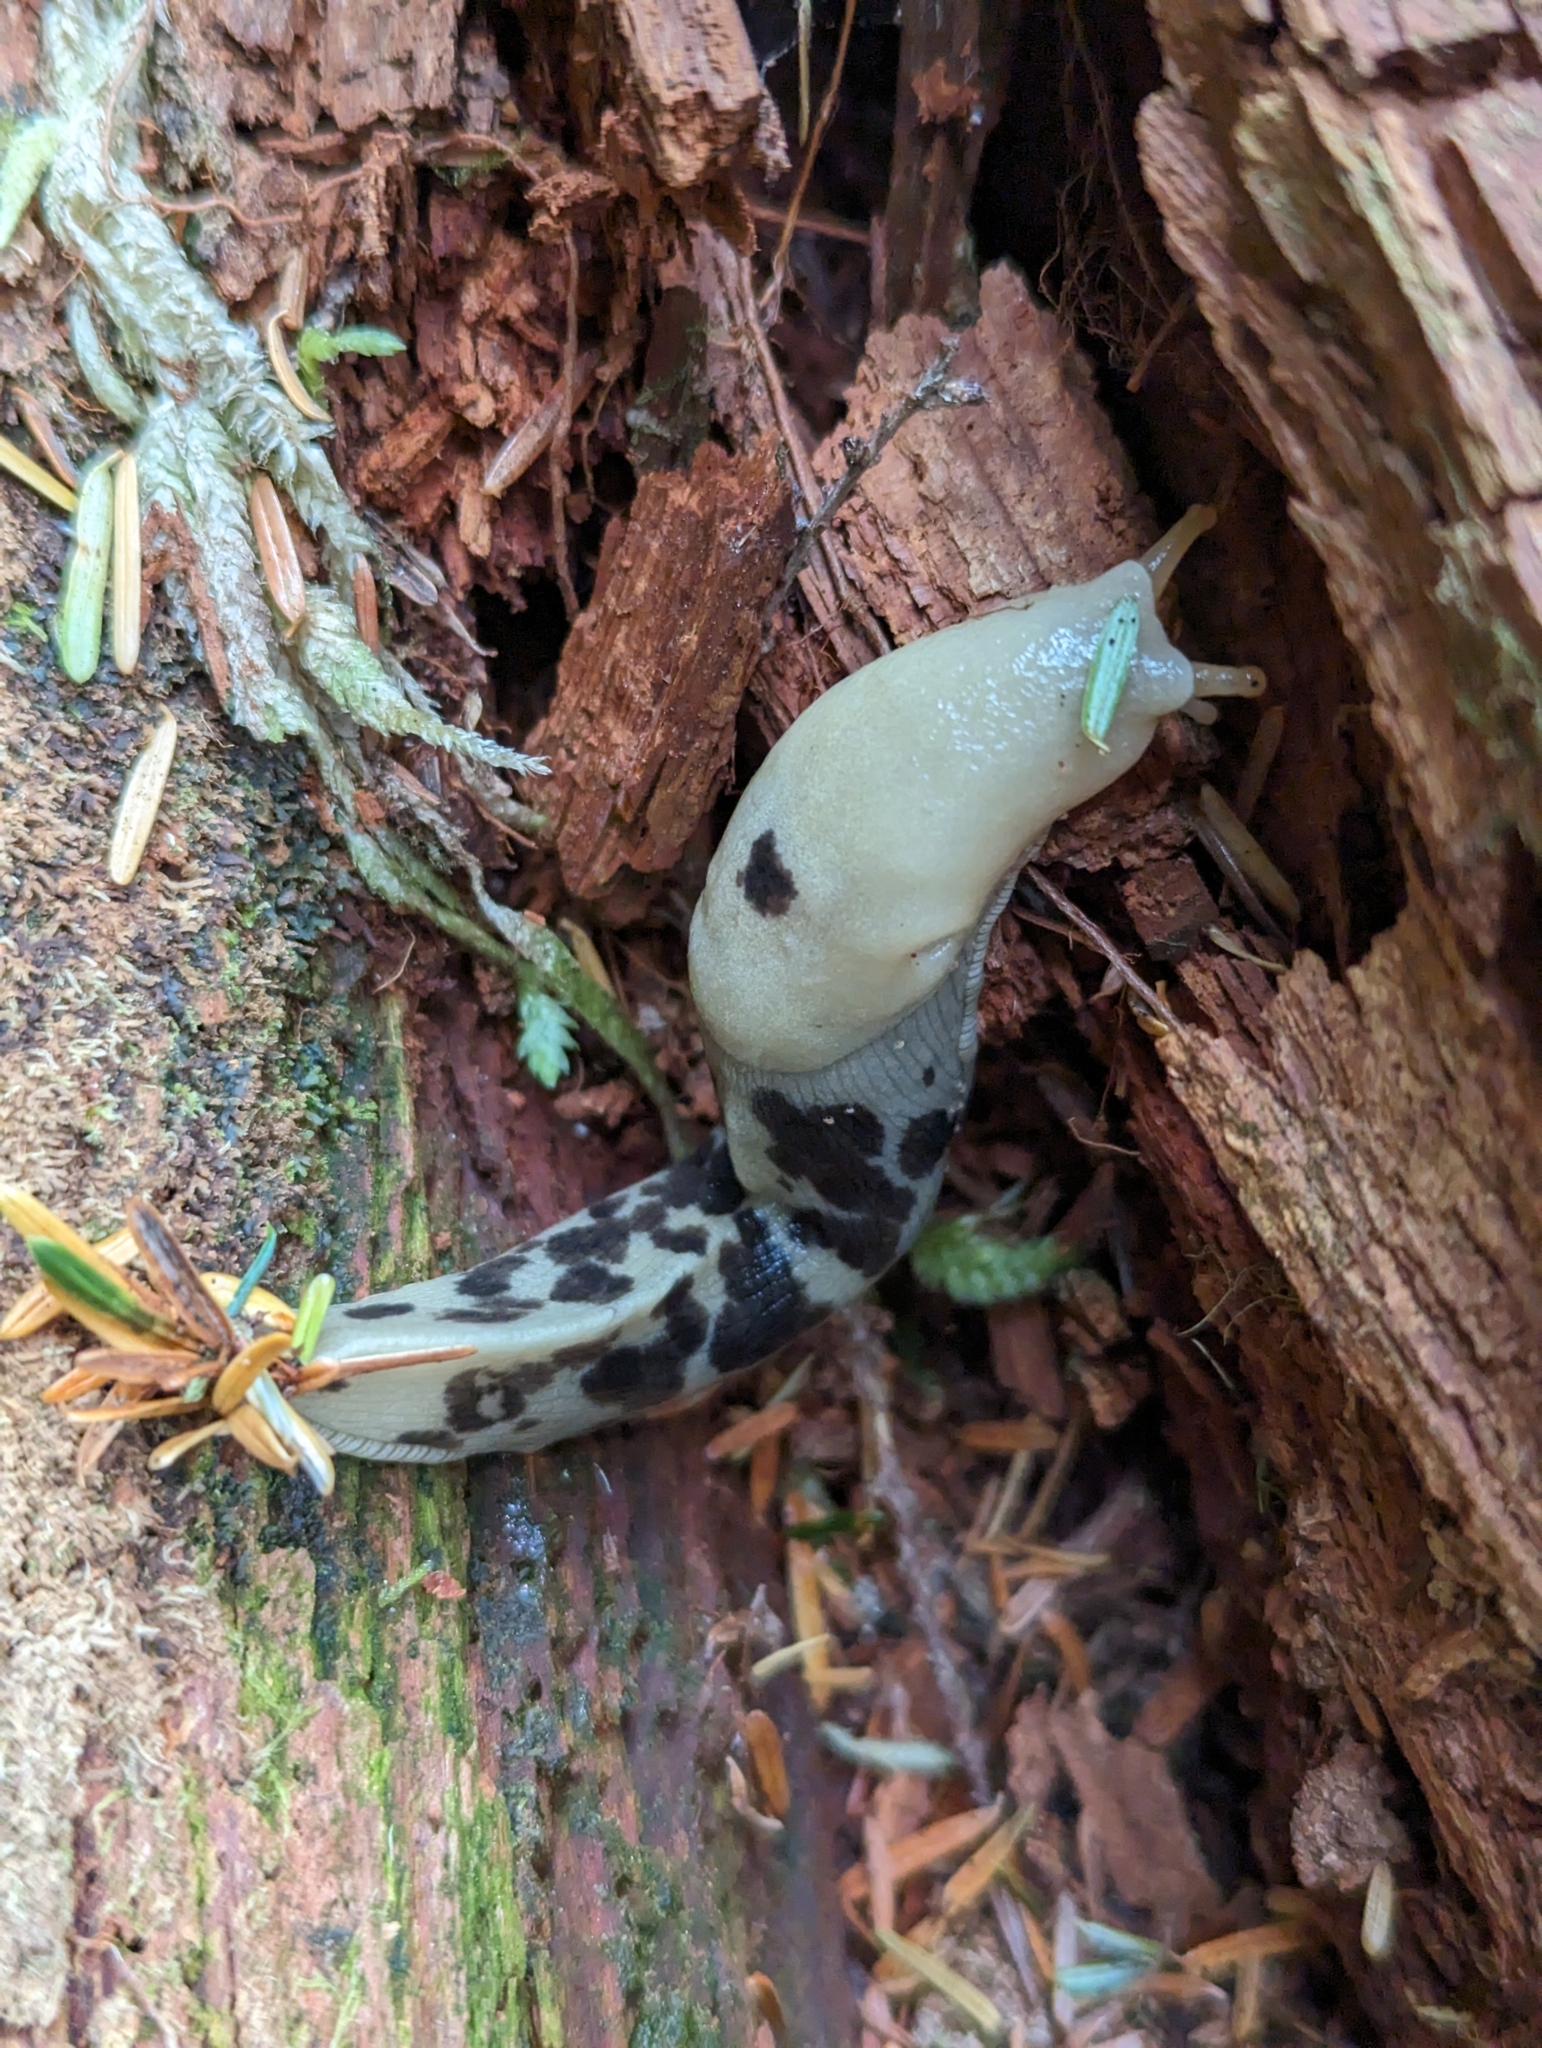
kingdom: Animalia
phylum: Mollusca
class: Gastropoda
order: Stylommatophora
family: Ariolimacidae
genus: Ariolimax
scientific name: Ariolimax columbianus
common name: Pacific banana slug
